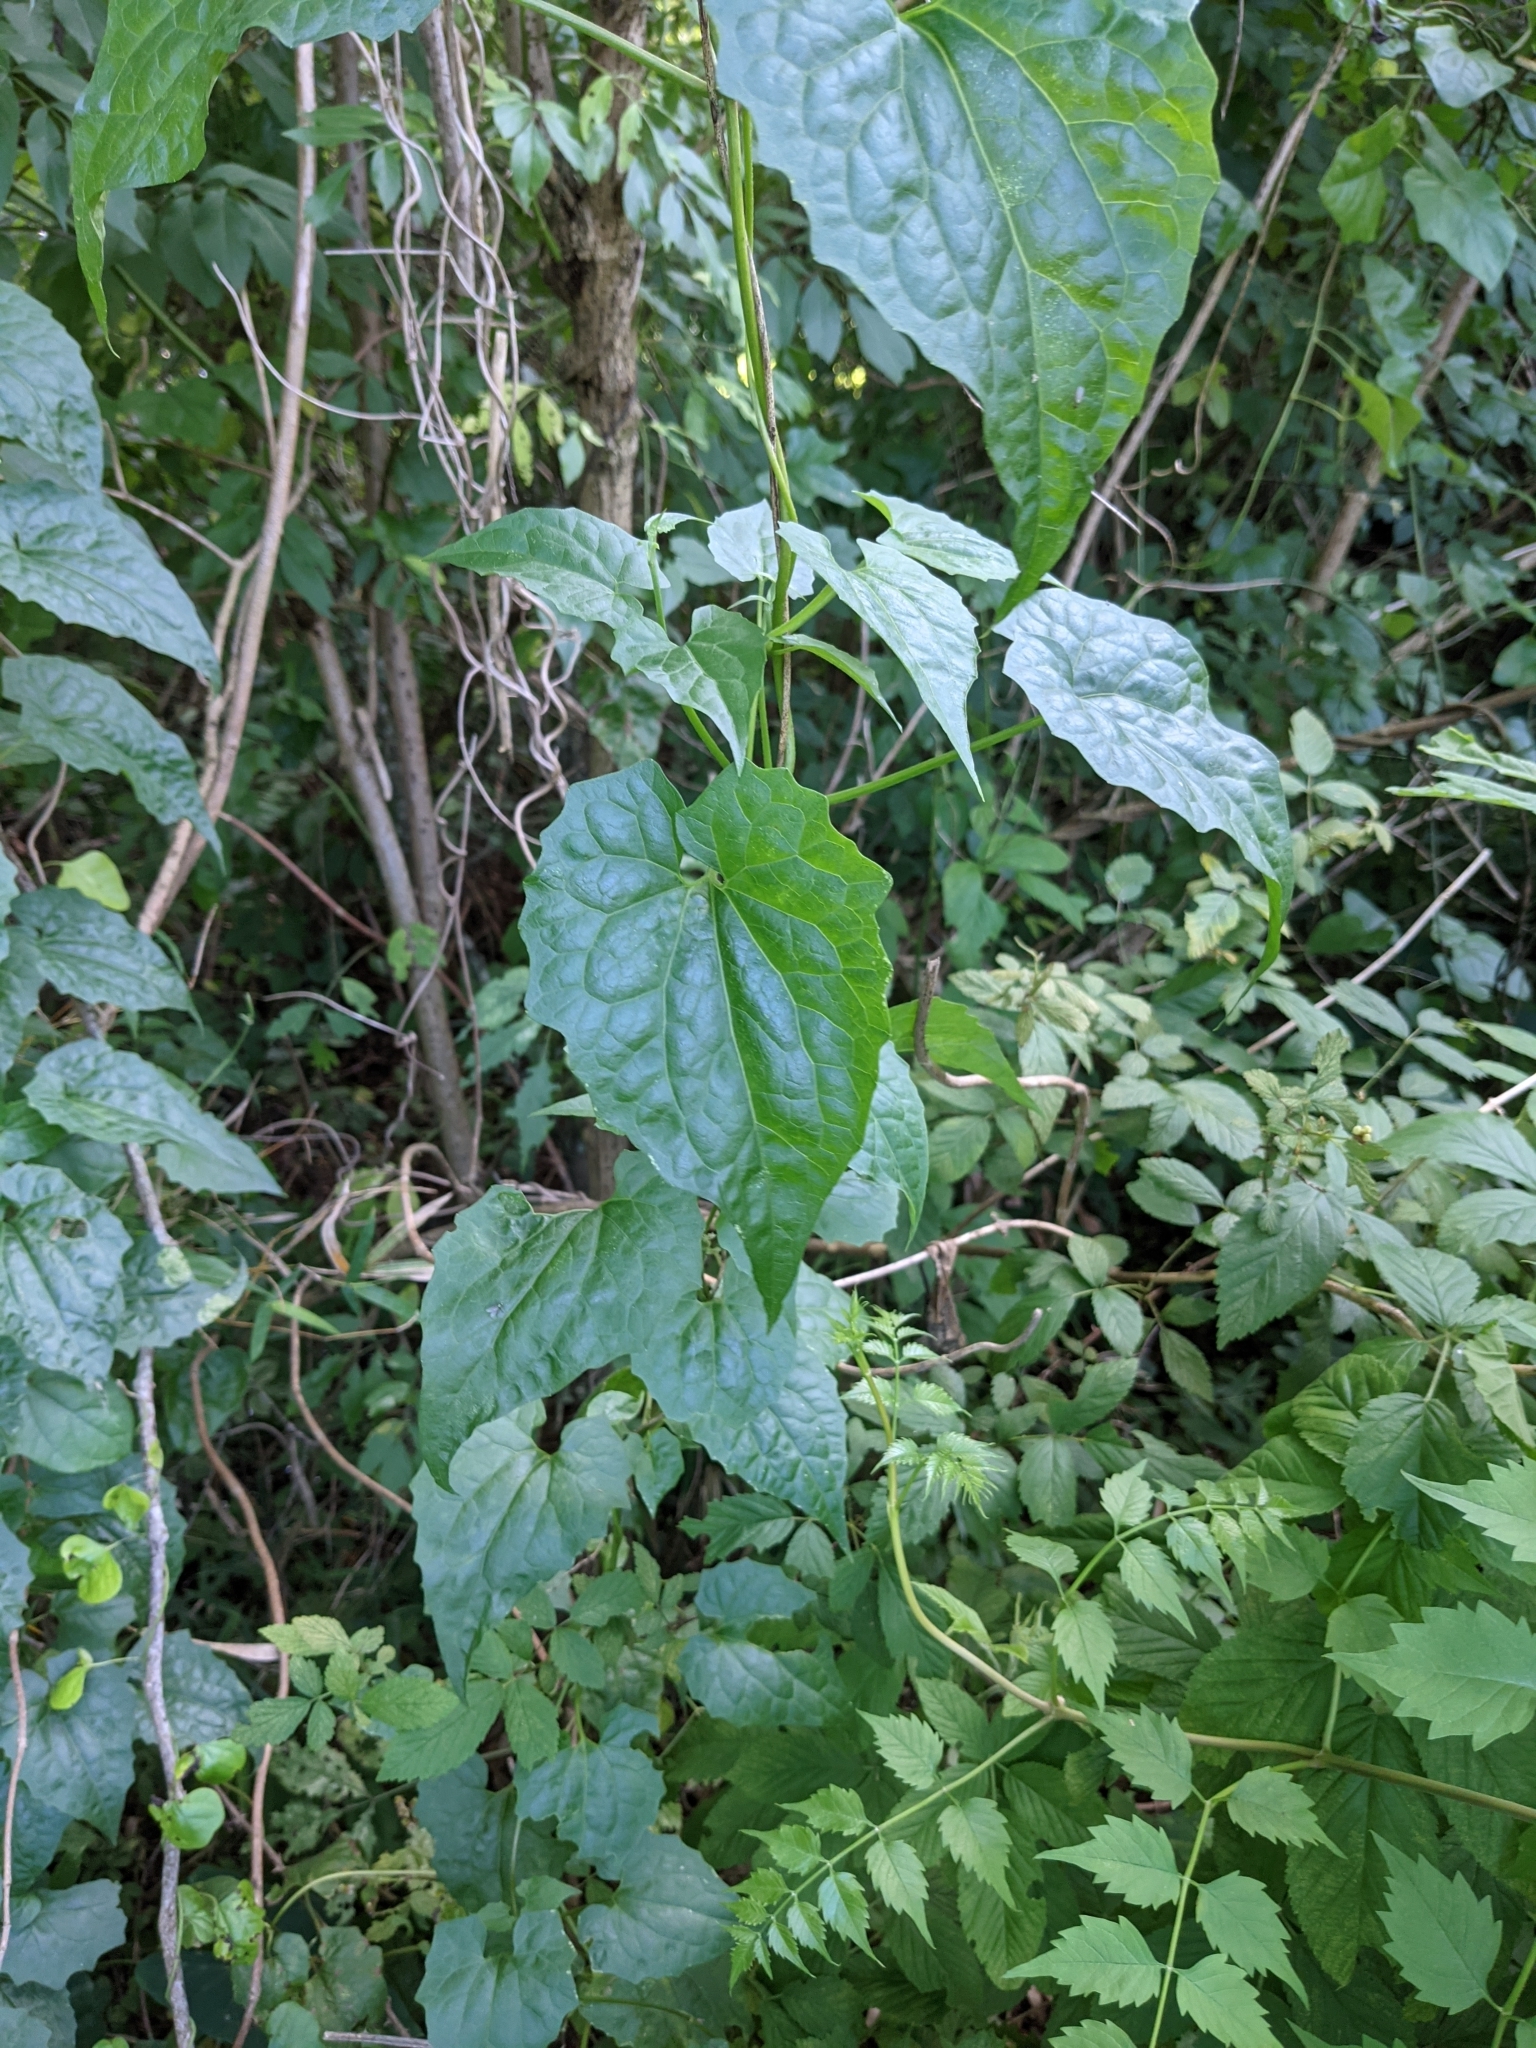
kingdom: Plantae
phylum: Tracheophyta
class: Magnoliopsida
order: Asterales
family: Asteraceae
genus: Mikania
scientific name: Mikania scandens
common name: Climbing hempvine
